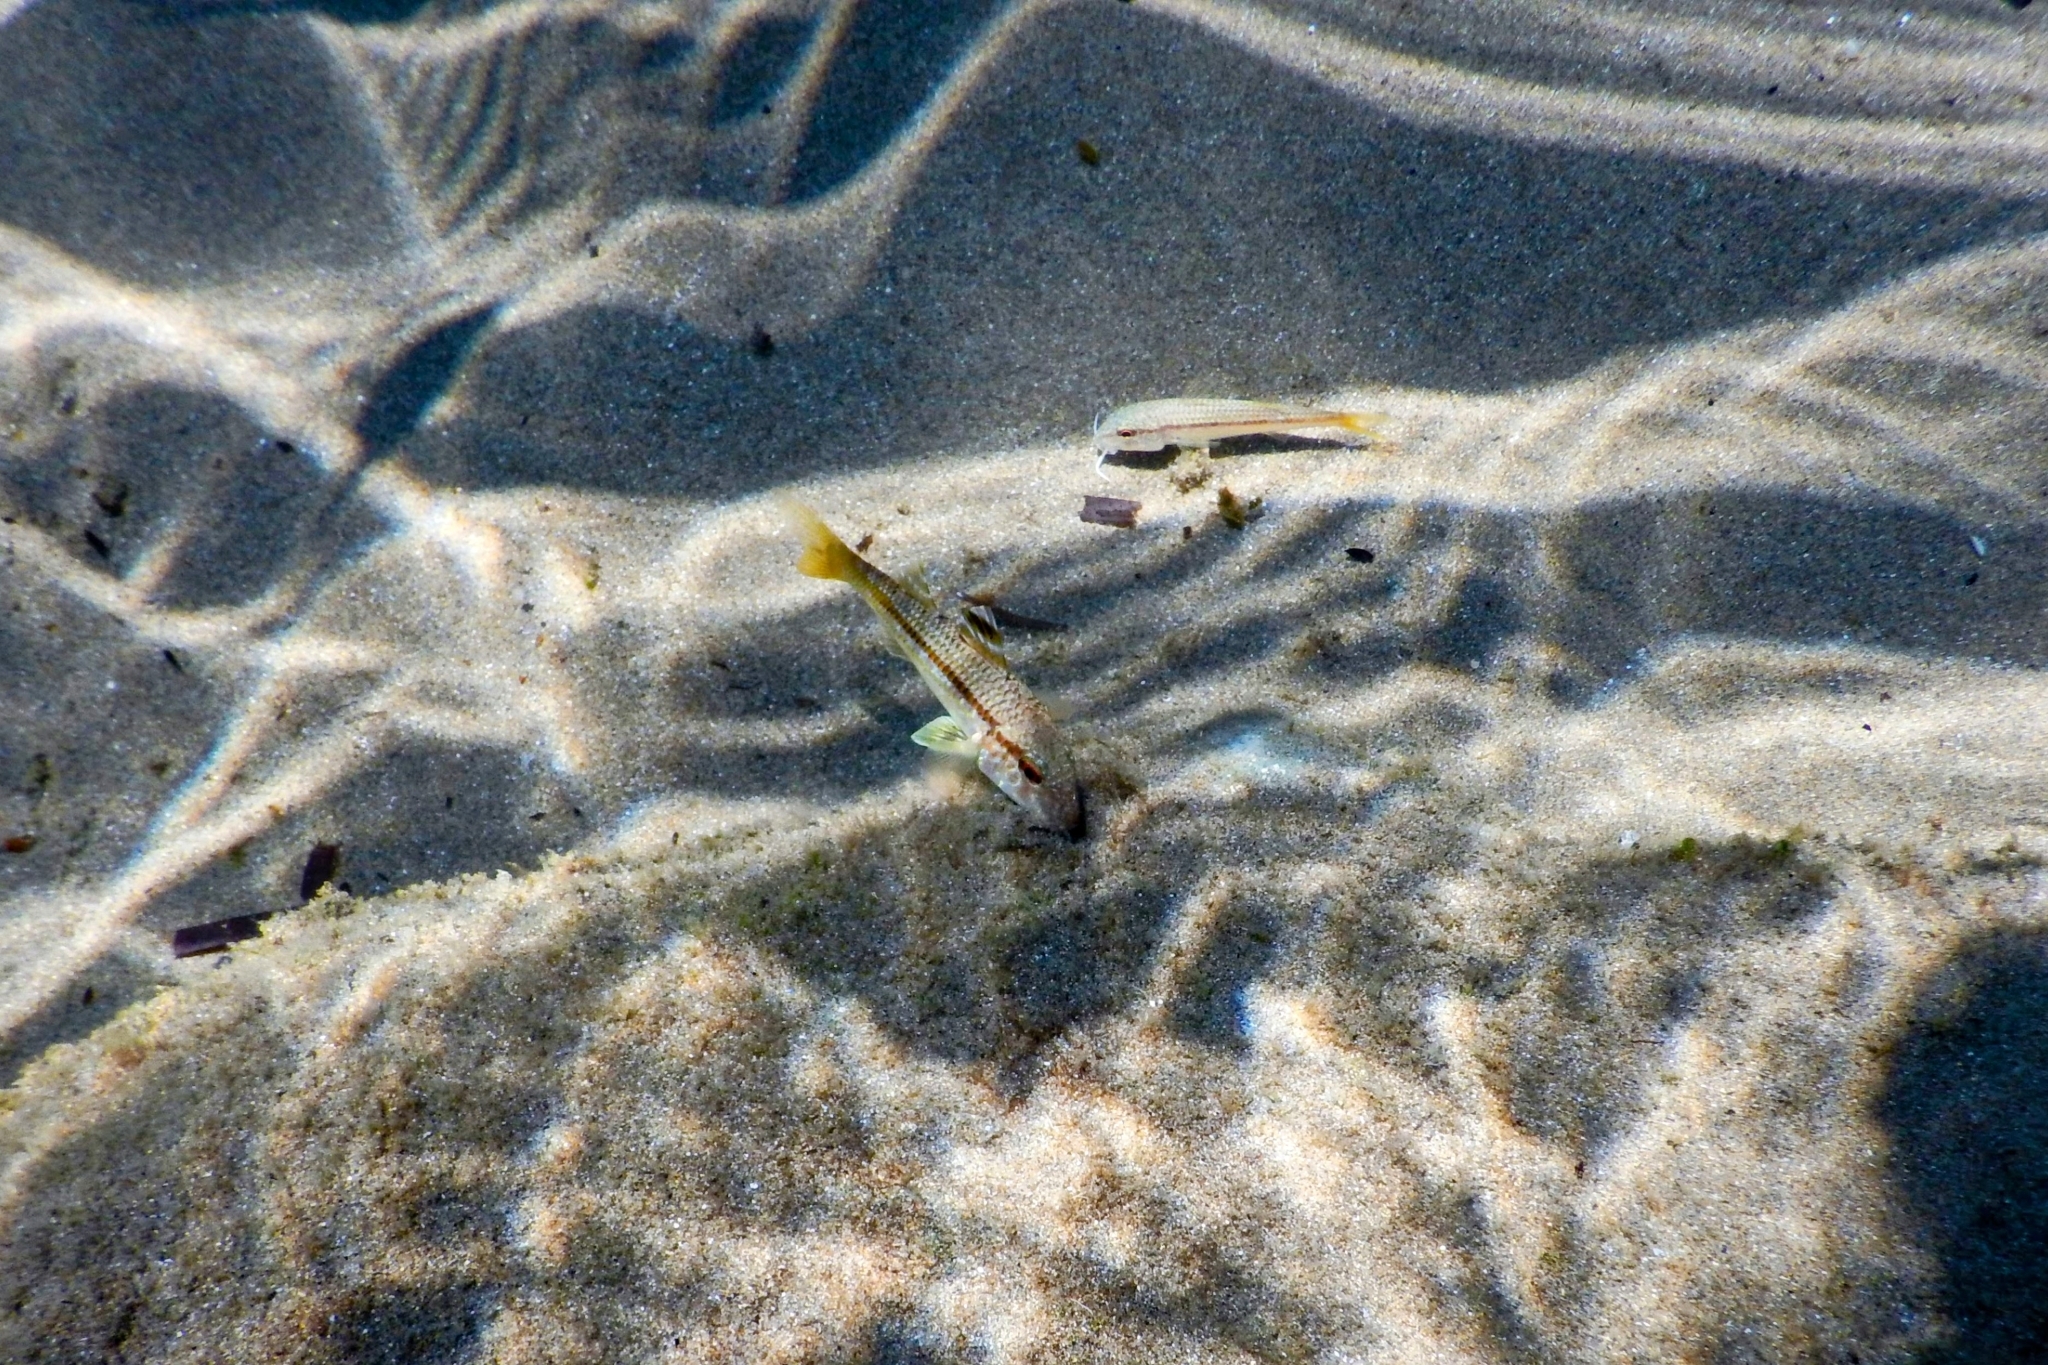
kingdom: Animalia
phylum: Chordata
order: Perciformes
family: Mullidae
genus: Mullus
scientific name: Mullus surmuletus
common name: Red mullet
